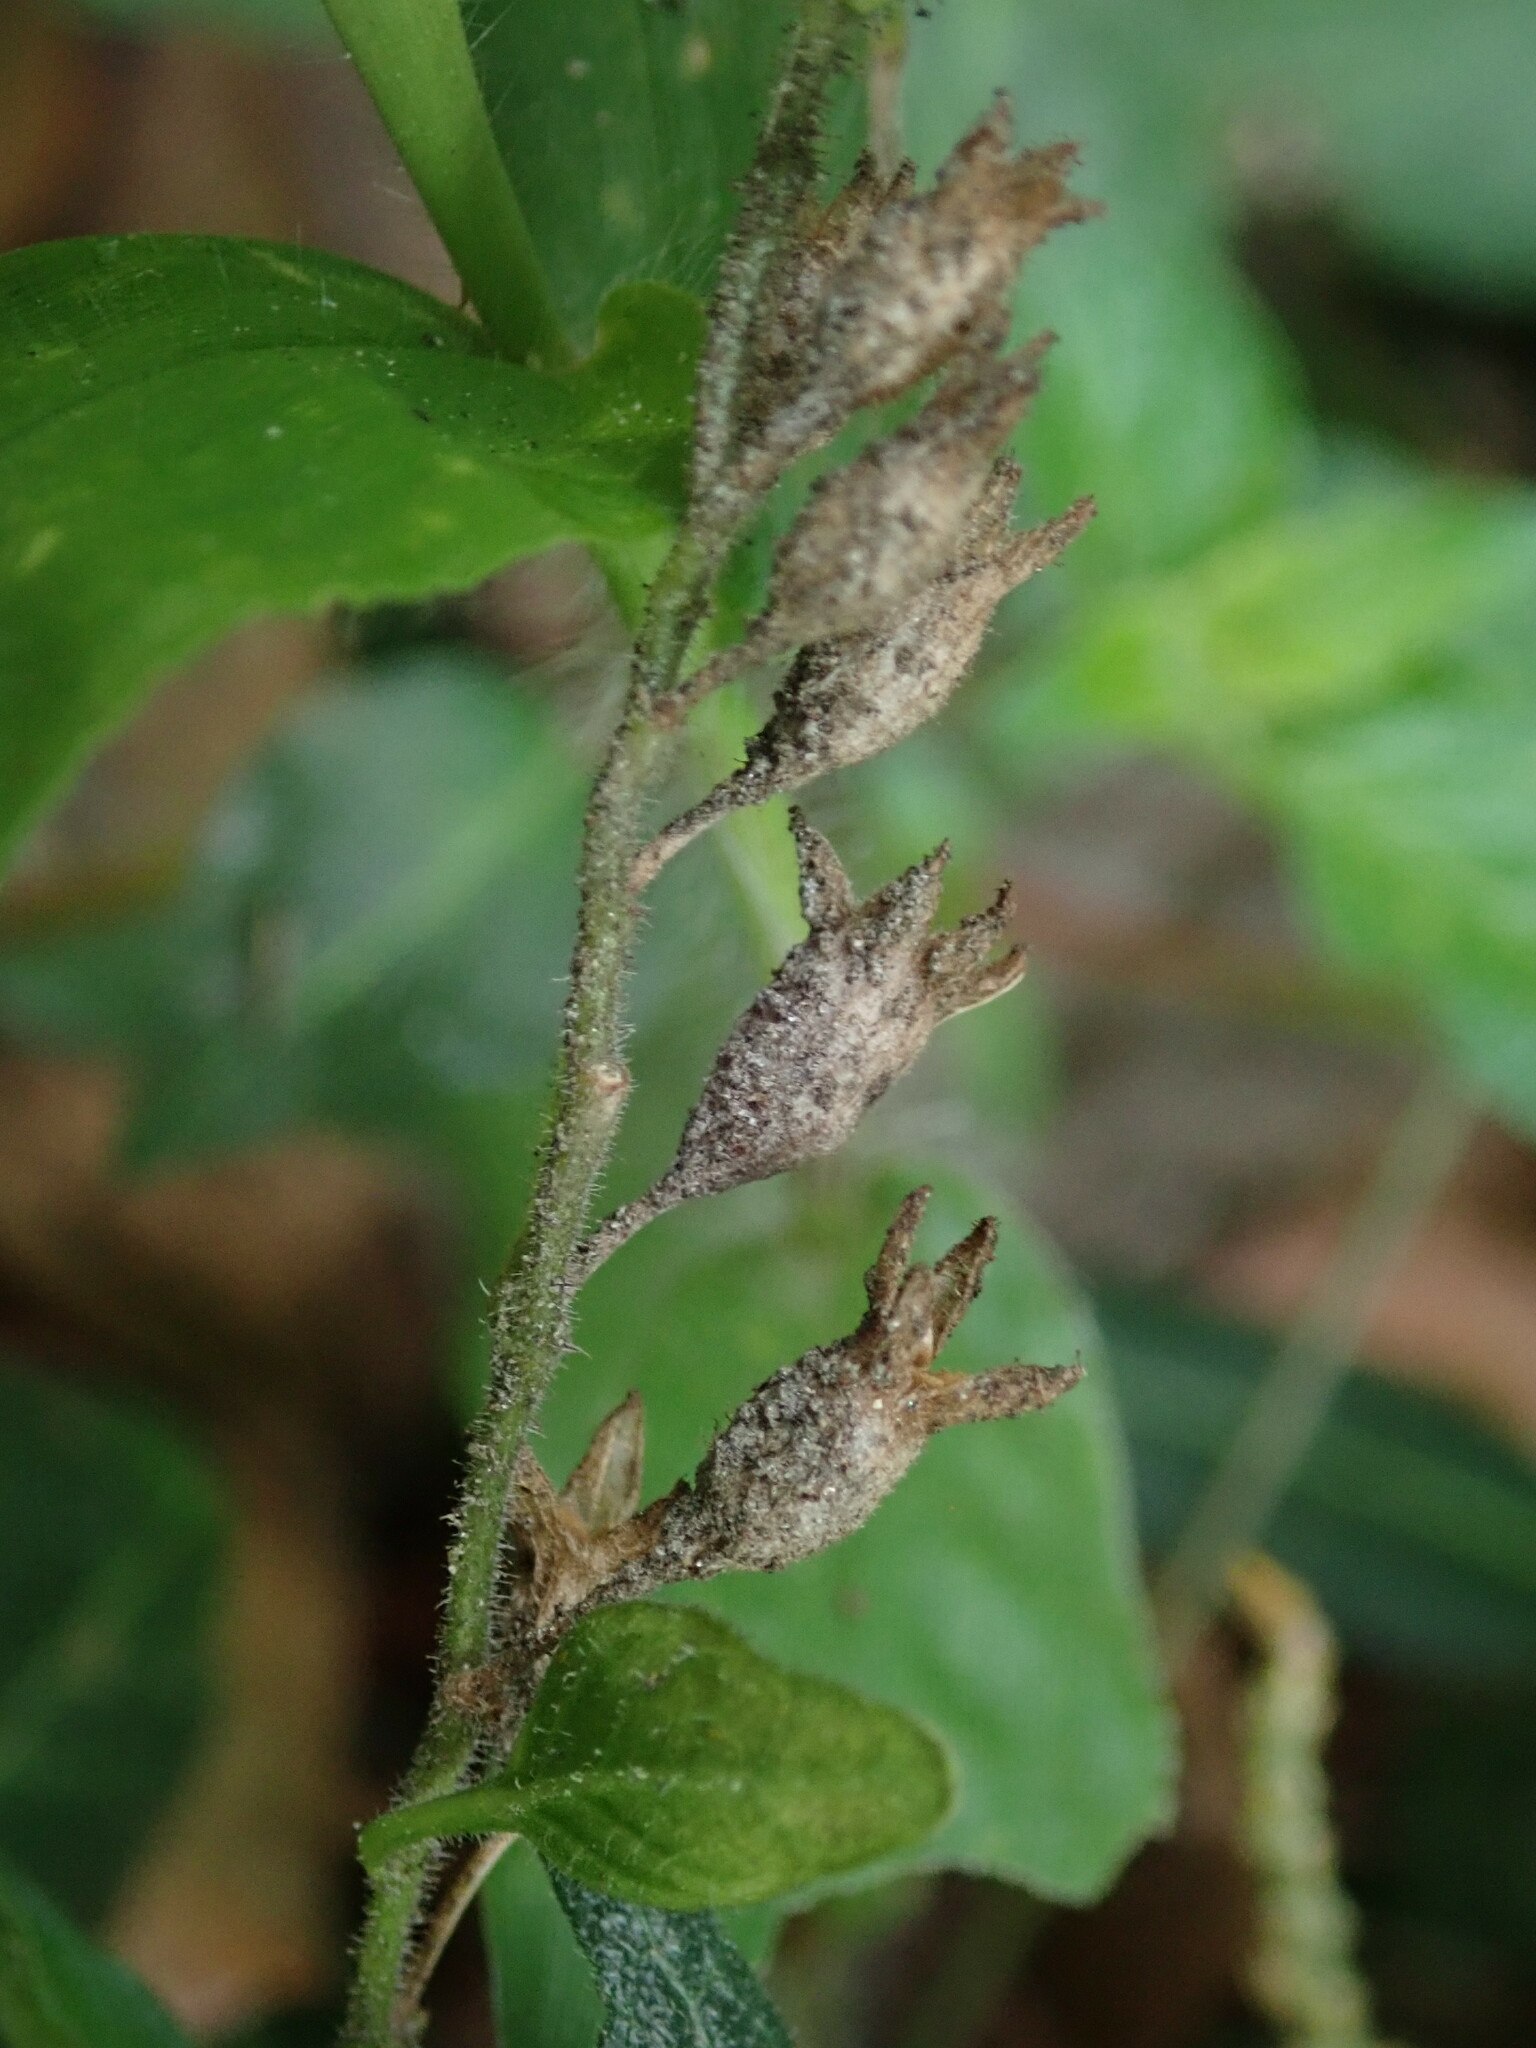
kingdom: Plantae
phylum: Tracheophyta
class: Magnoliopsida
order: Solanales
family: Solanaceae
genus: Browallia
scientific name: Browallia americana
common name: Jamaican forget-me-not
